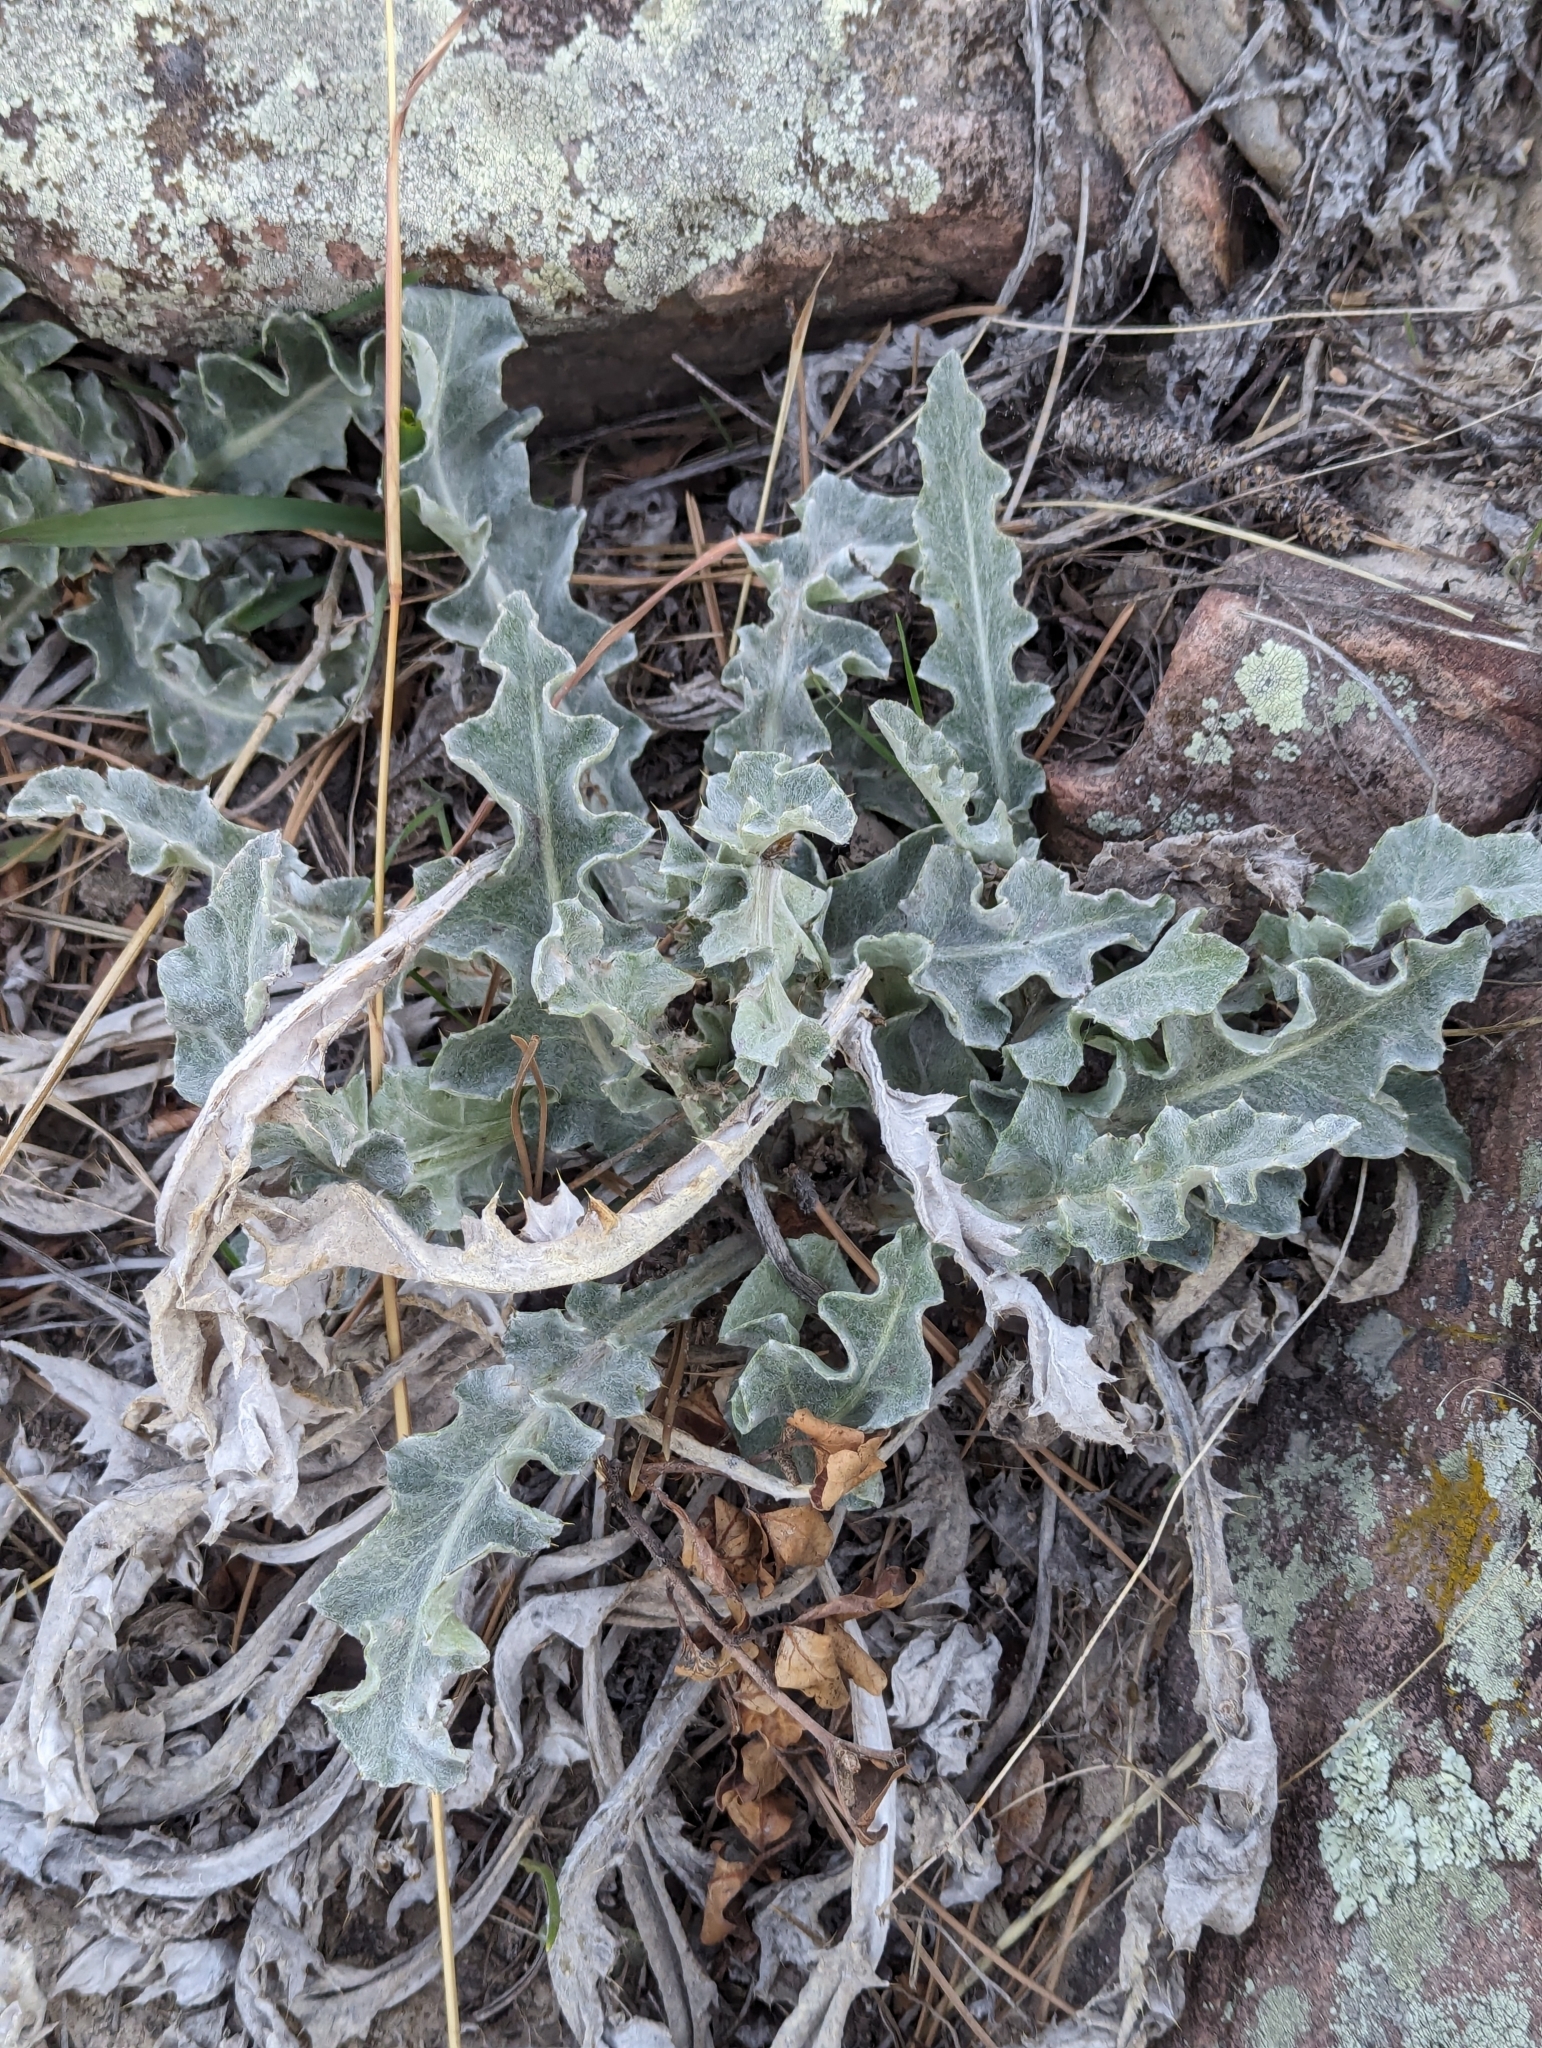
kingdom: Plantae
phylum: Tracheophyta
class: Magnoliopsida
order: Asterales
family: Asteraceae
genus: Cirsium
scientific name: Cirsium undulatum
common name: Pasture thistle
